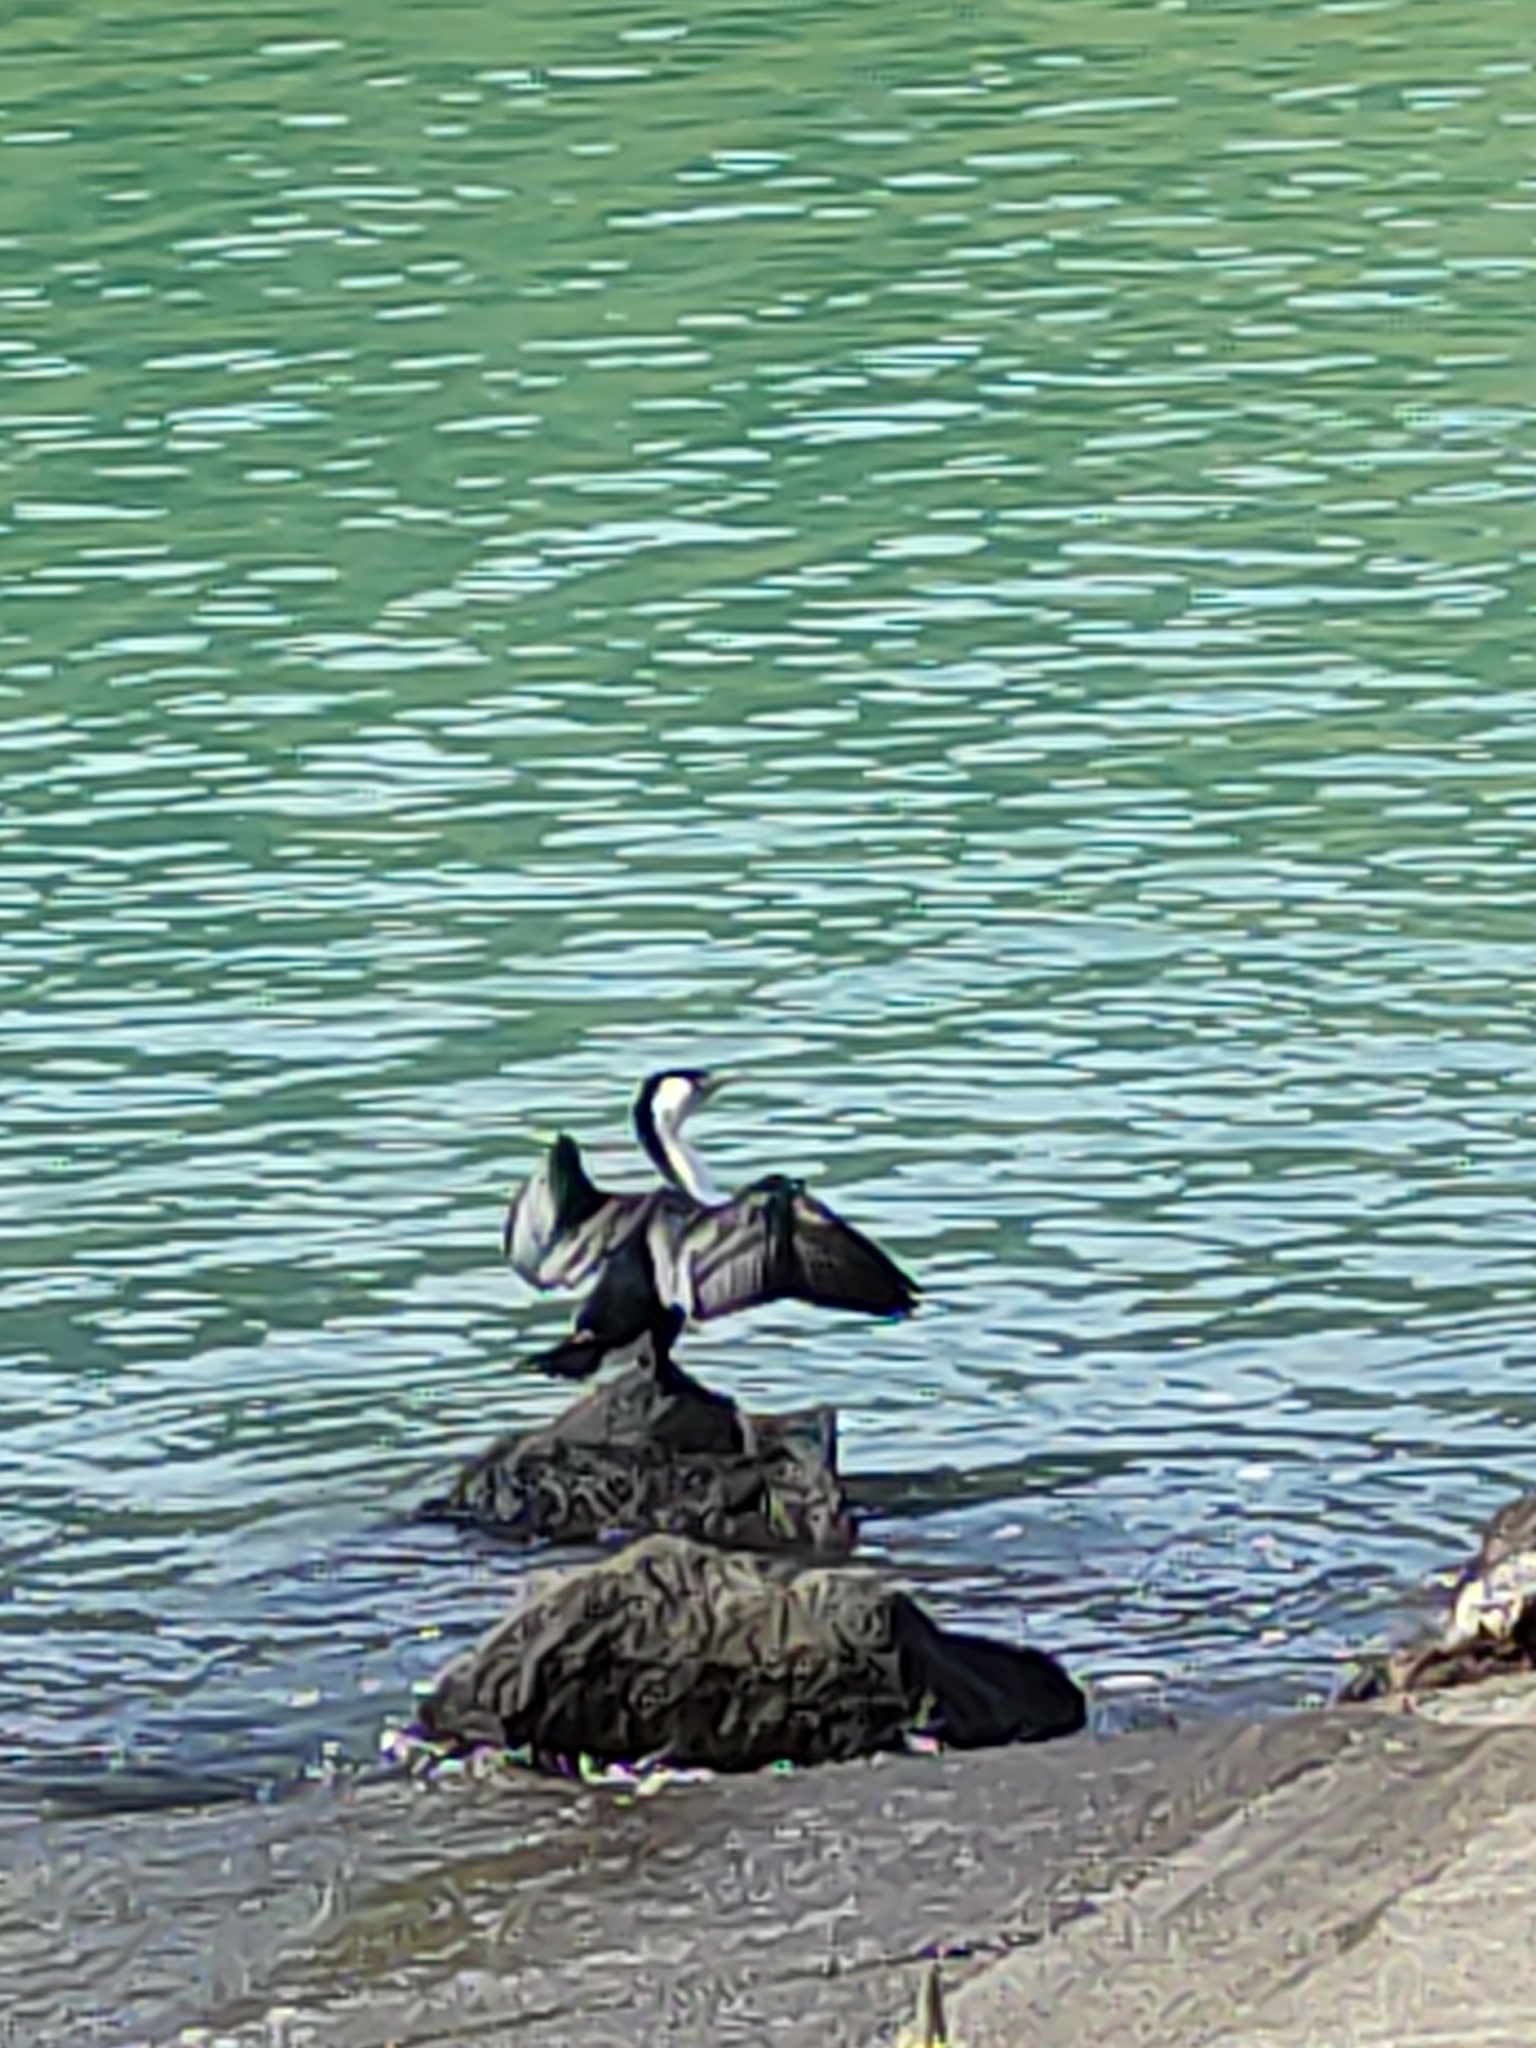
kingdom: Animalia
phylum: Chordata
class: Aves
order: Suliformes
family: Phalacrocoracidae
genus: Phalacrocorax
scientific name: Phalacrocorax varius
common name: Pied cormorant
